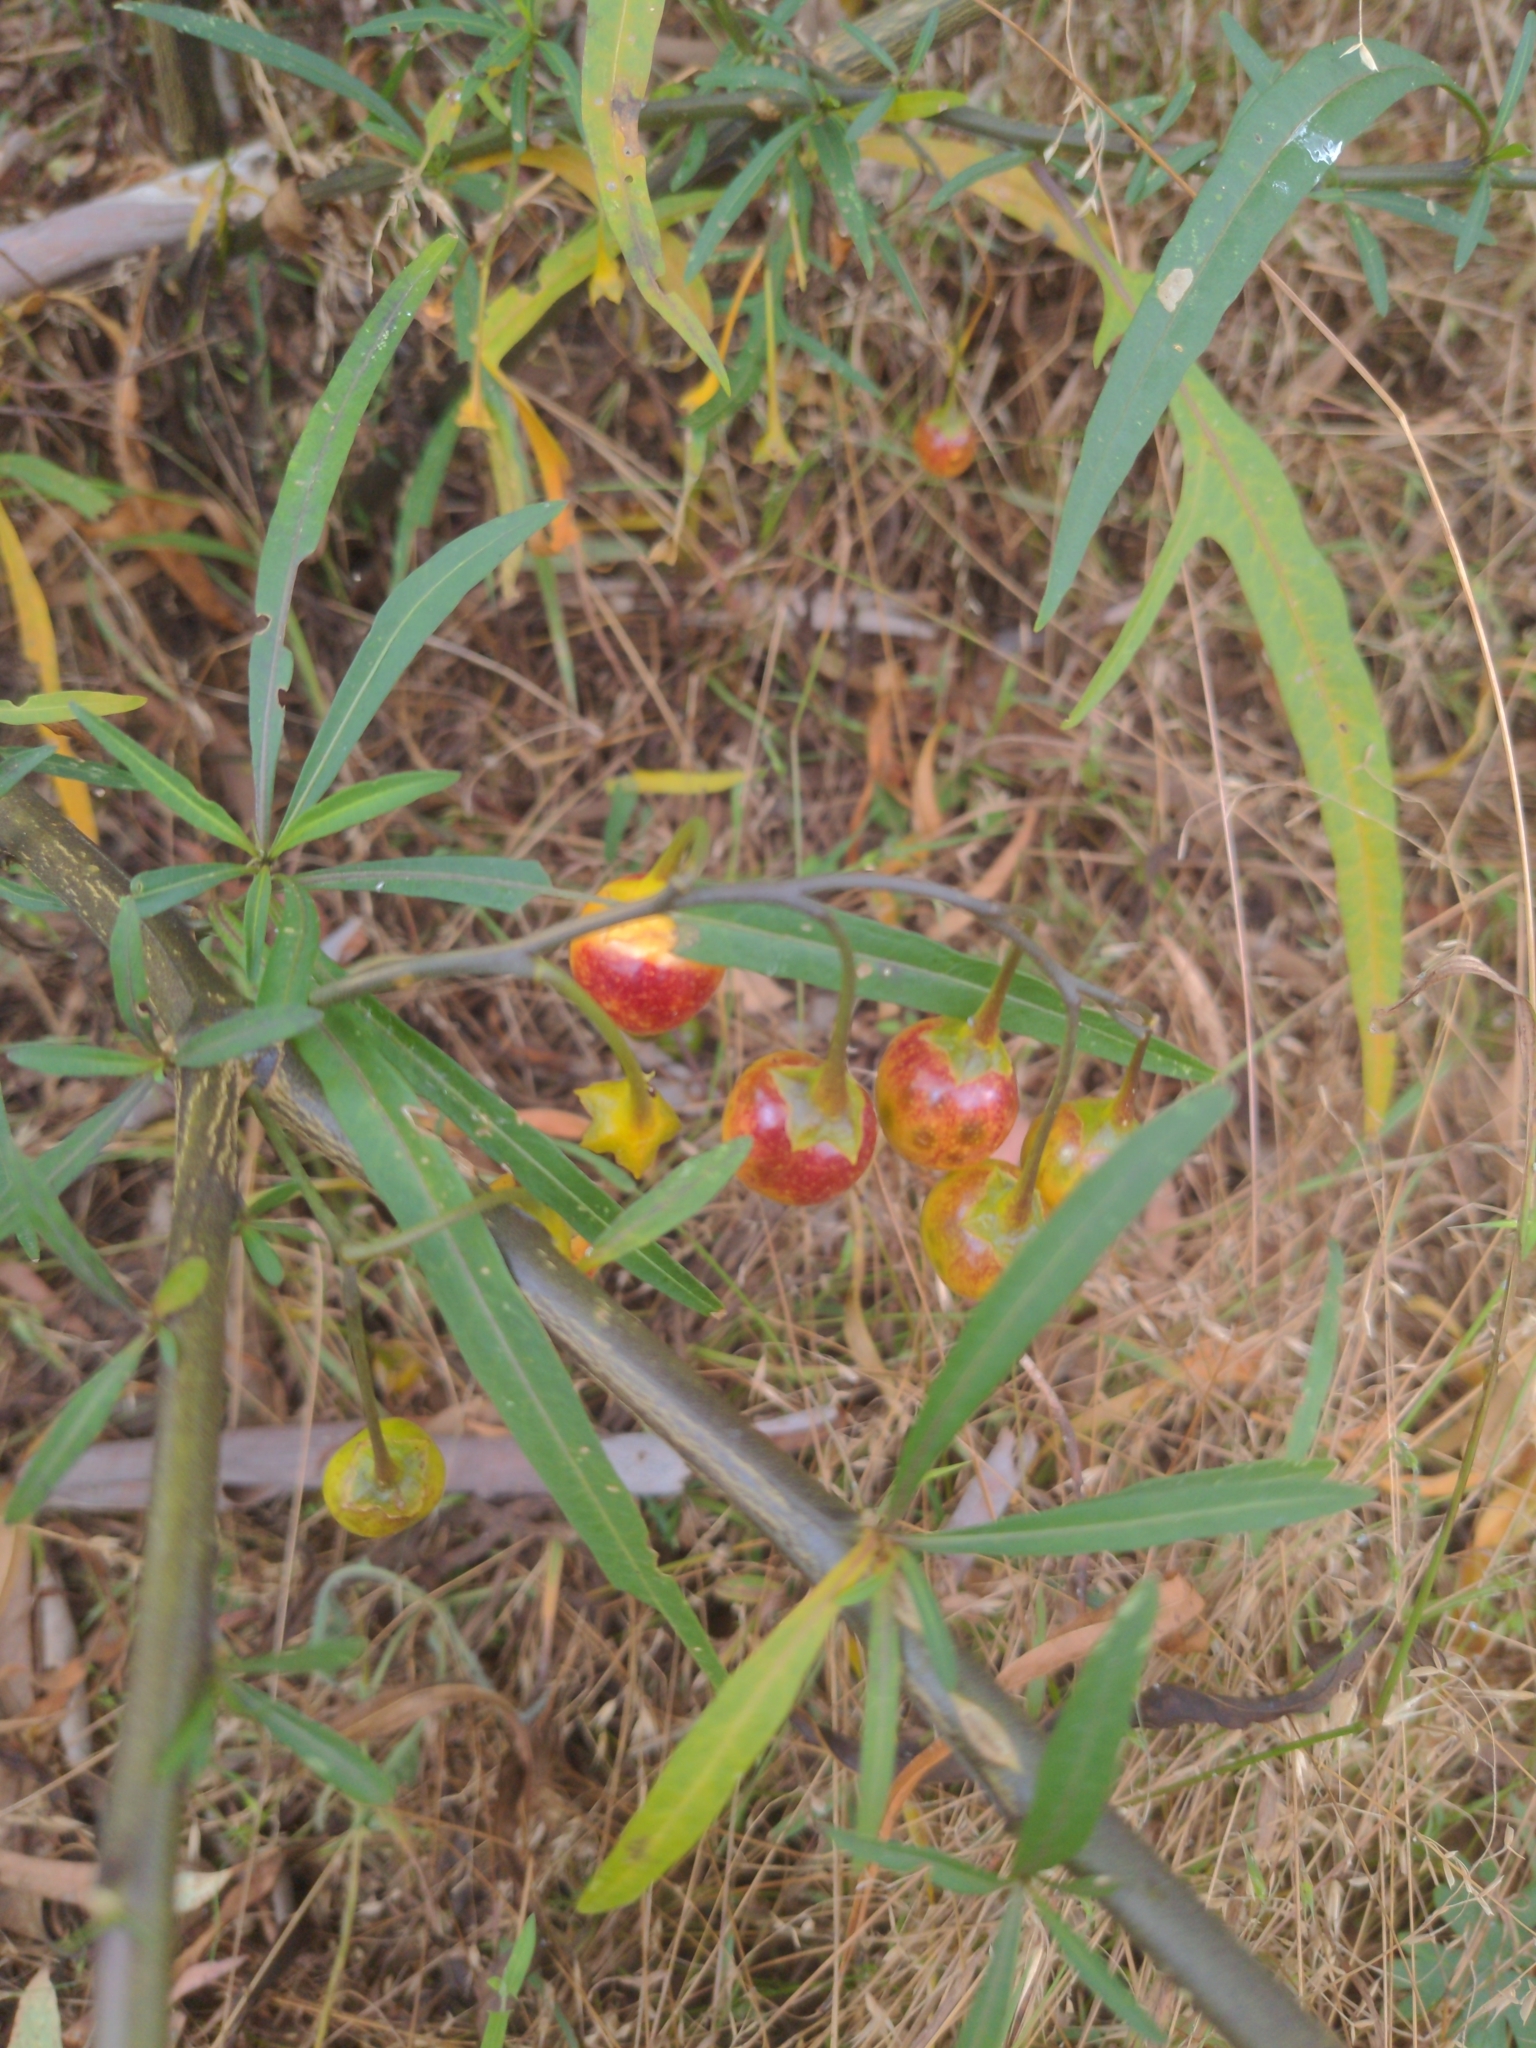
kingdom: Plantae
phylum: Tracheophyta
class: Magnoliopsida
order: Solanales
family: Solanaceae
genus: Solanum
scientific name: Solanum linearifolium
